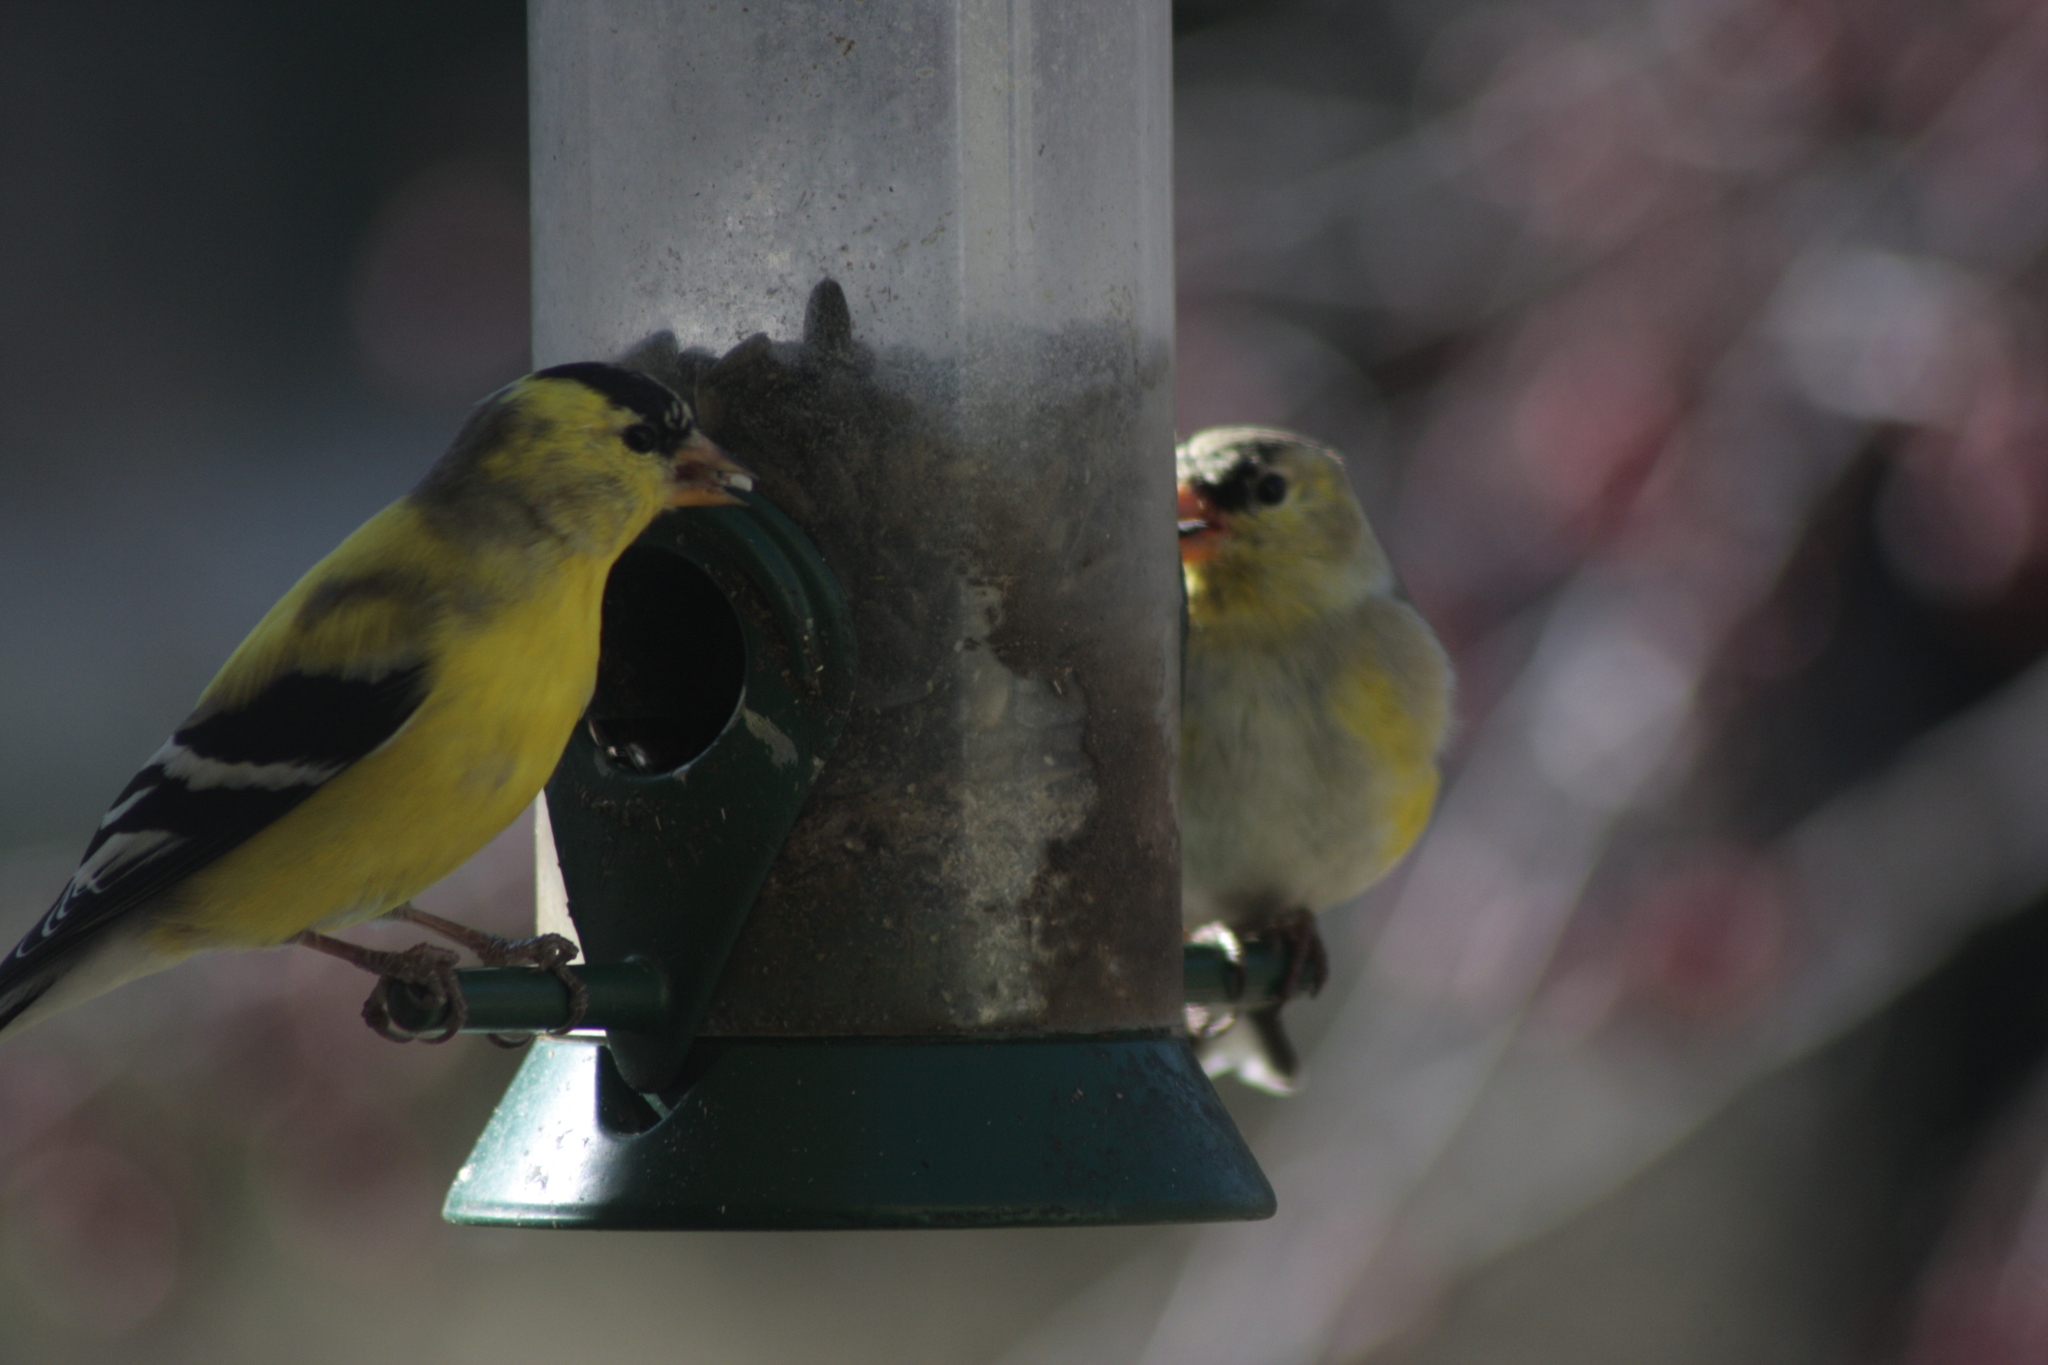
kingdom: Animalia
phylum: Chordata
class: Aves
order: Passeriformes
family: Fringillidae
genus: Spinus
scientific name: Spinus tristis
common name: American goldfinch
